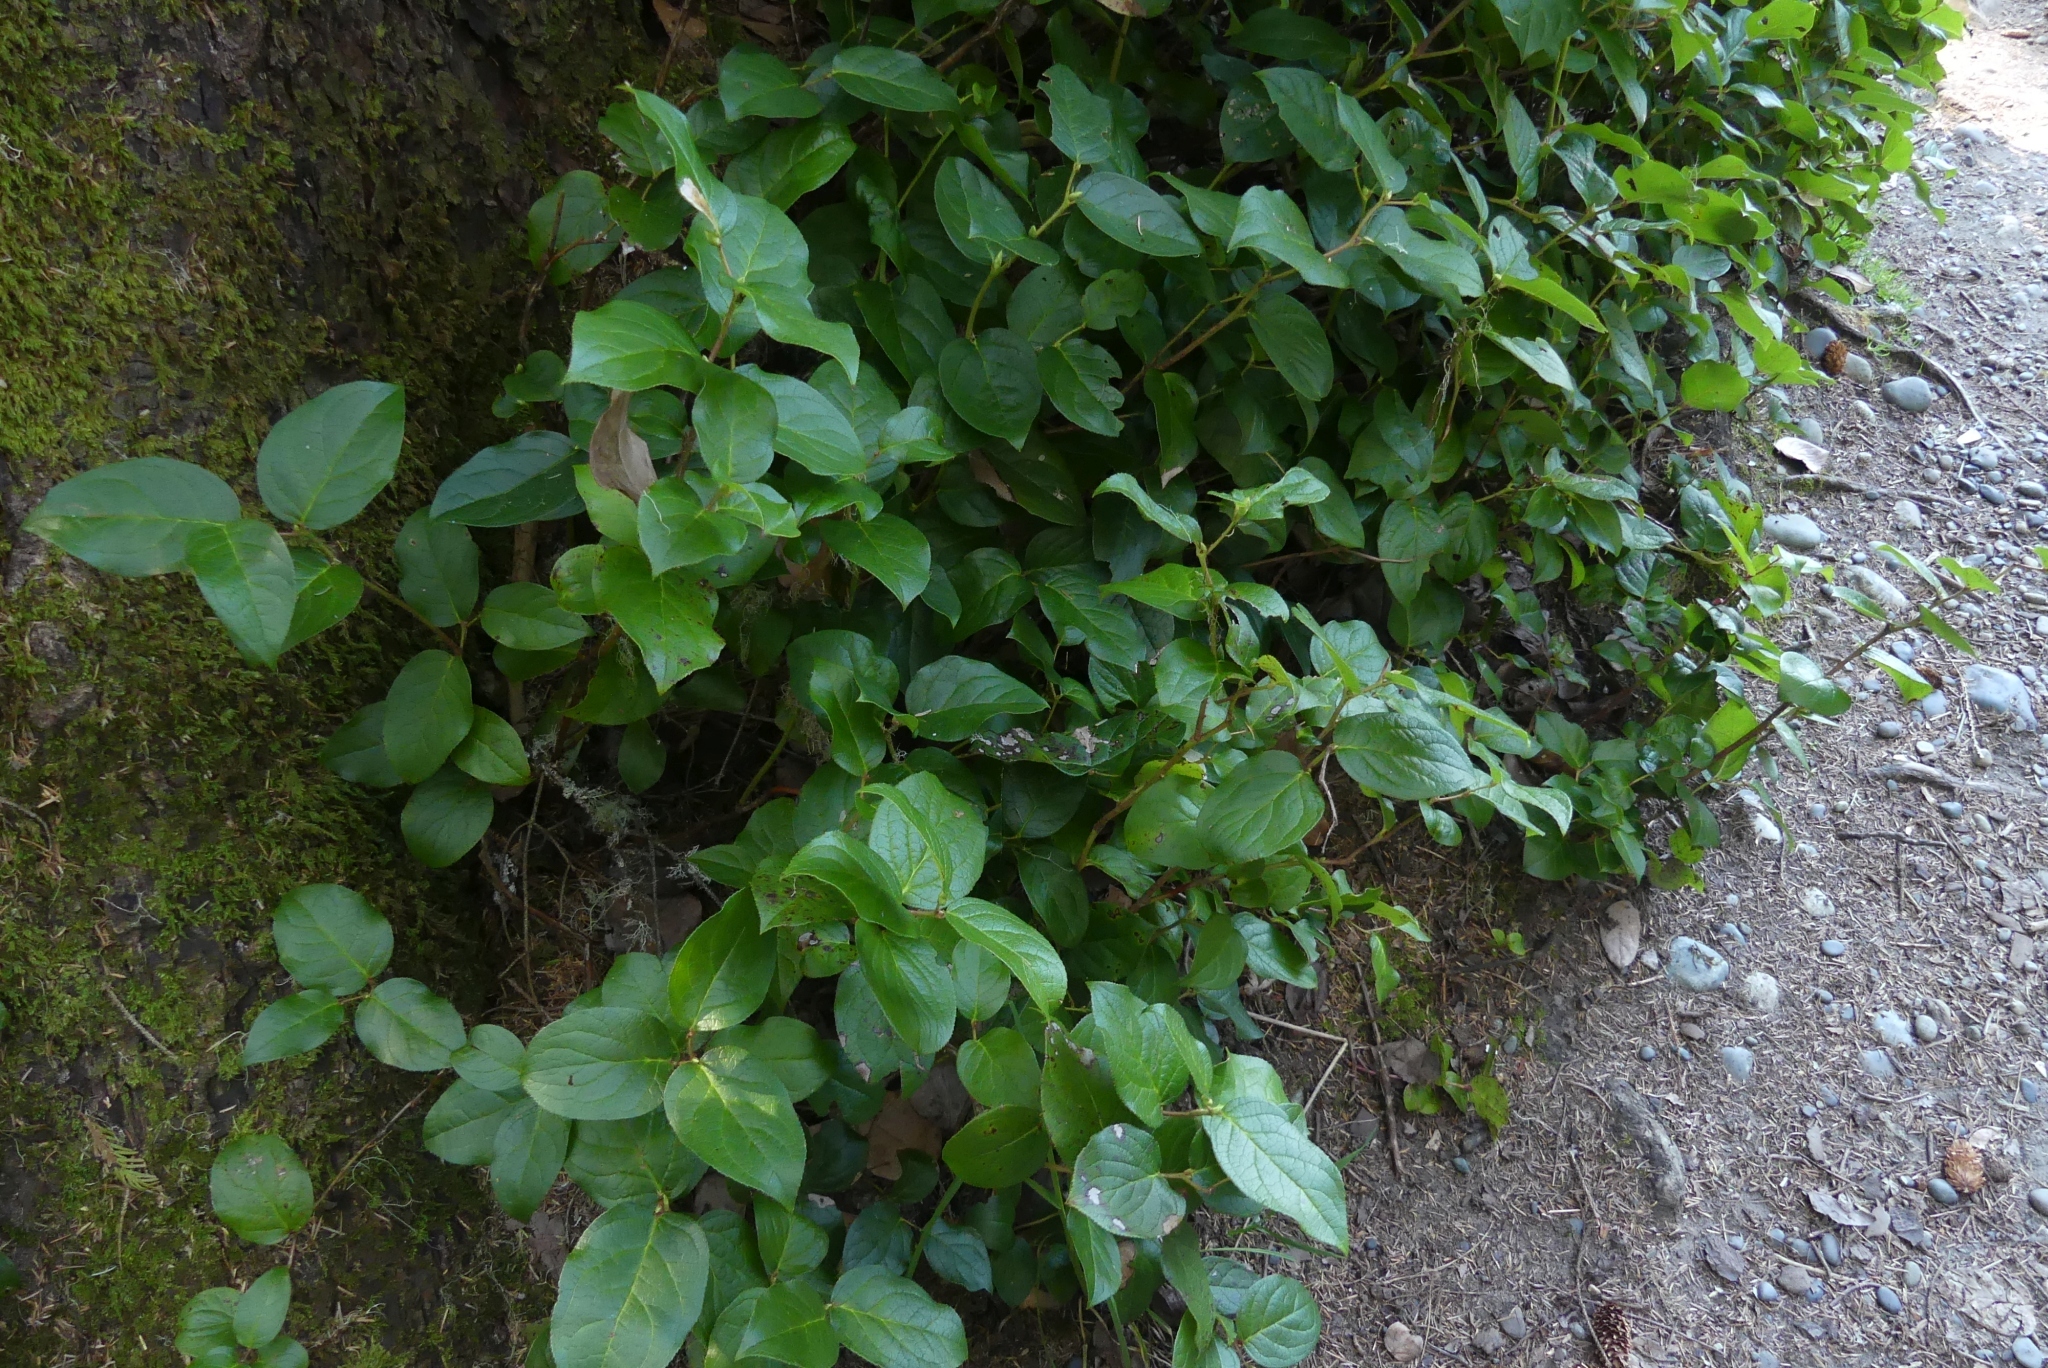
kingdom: Plantae
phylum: Tracheophyta
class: Magnoliopsida
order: Ericales
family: Ericaceae
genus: Gaultheria
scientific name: Gaultheria shallon
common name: Shallon
